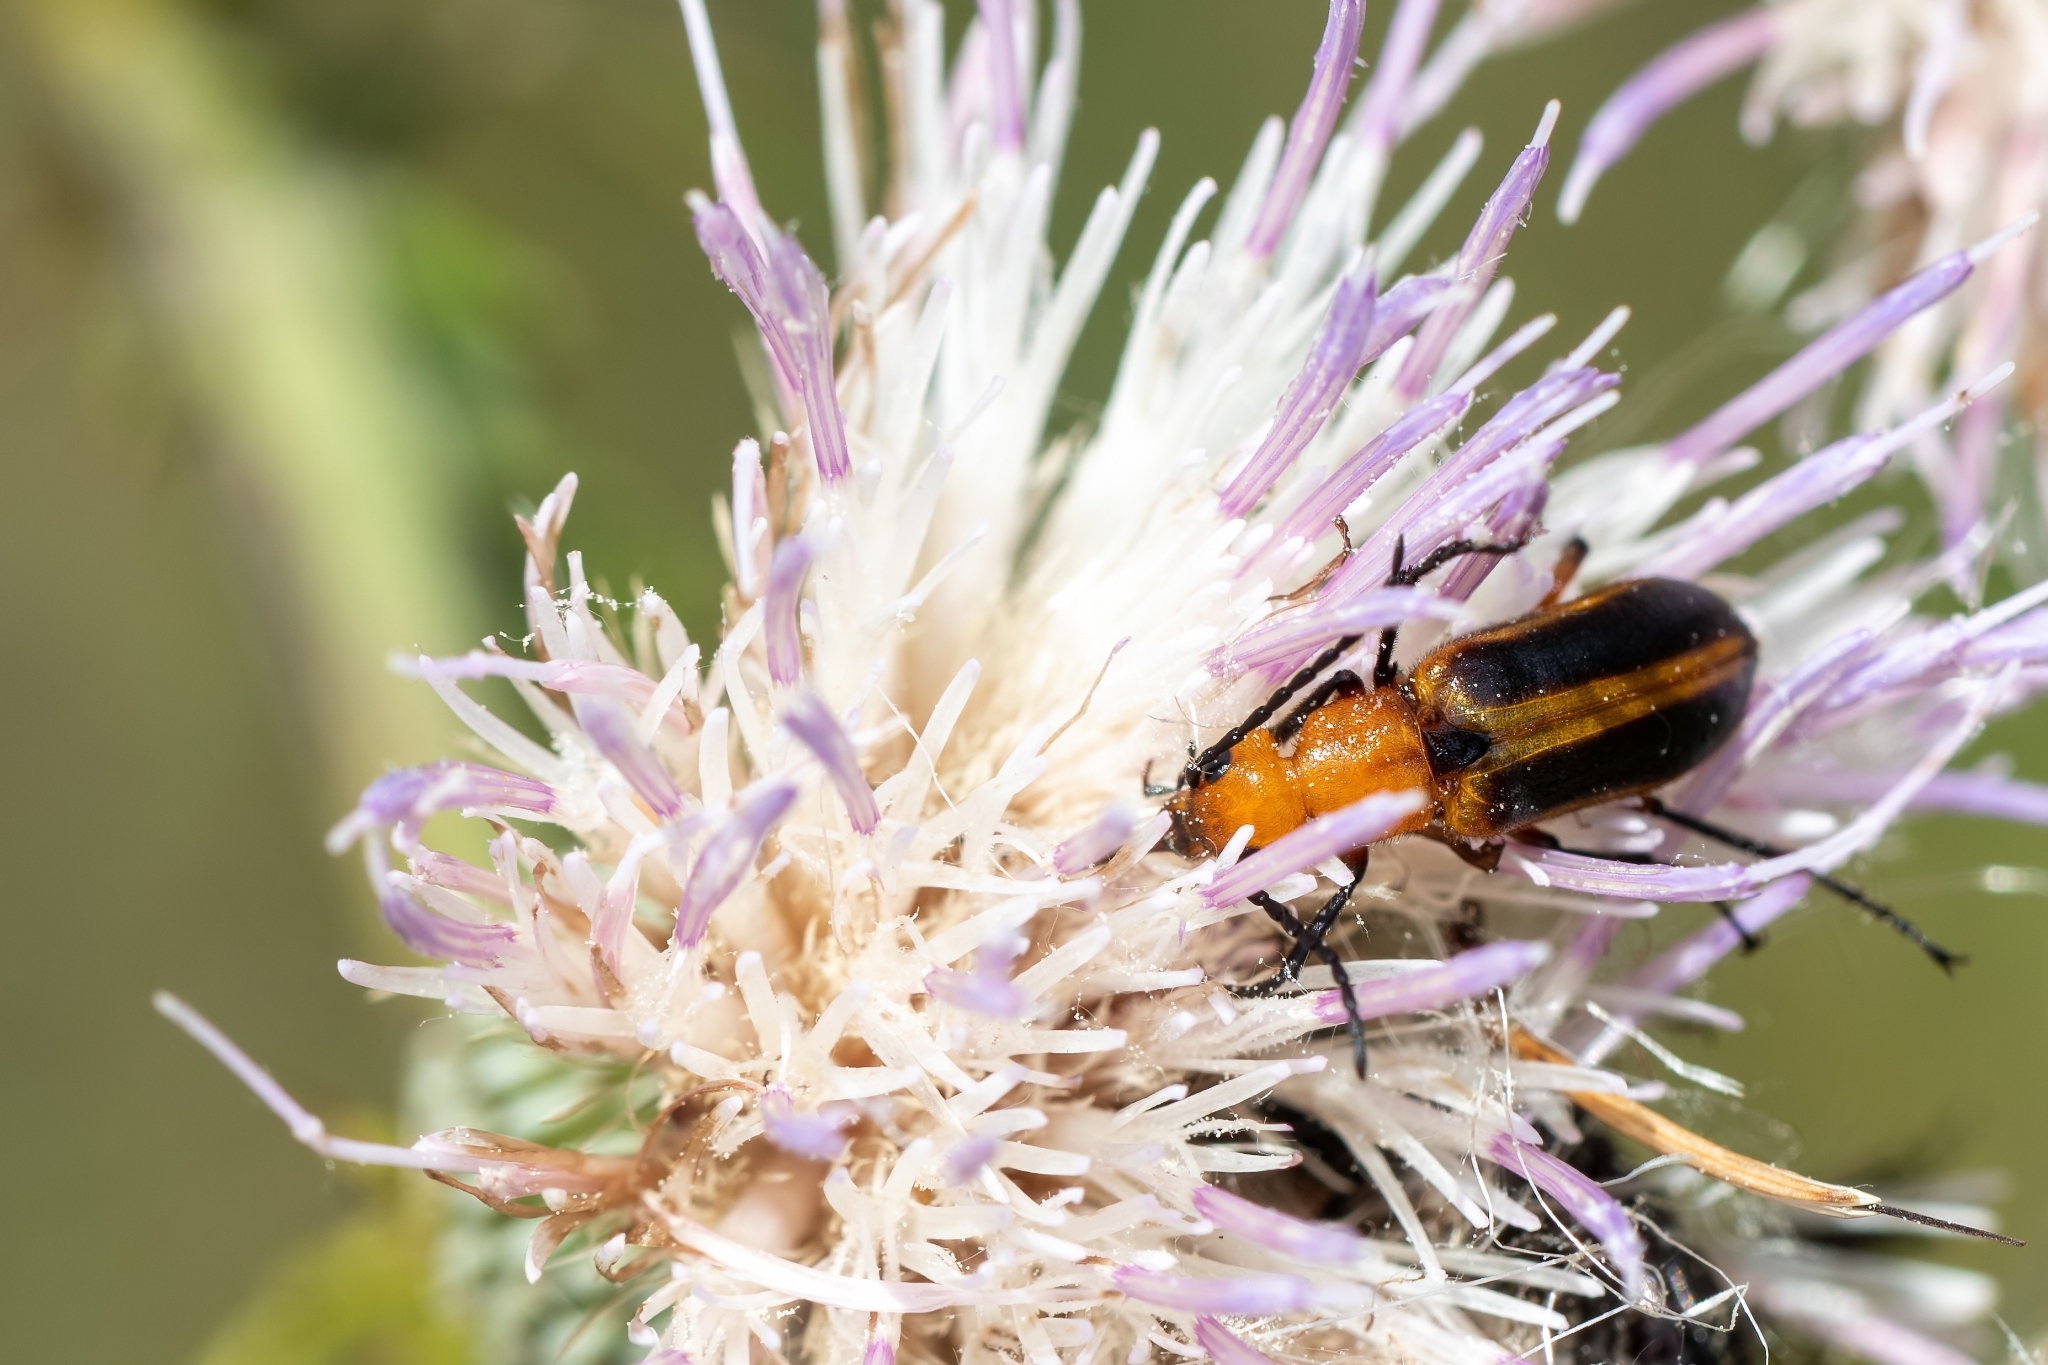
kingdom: Animalia
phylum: Arthropoda
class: Insecta
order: Coleoptera
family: Meloidae
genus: Nemognatha
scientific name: Nemognatha piazata
